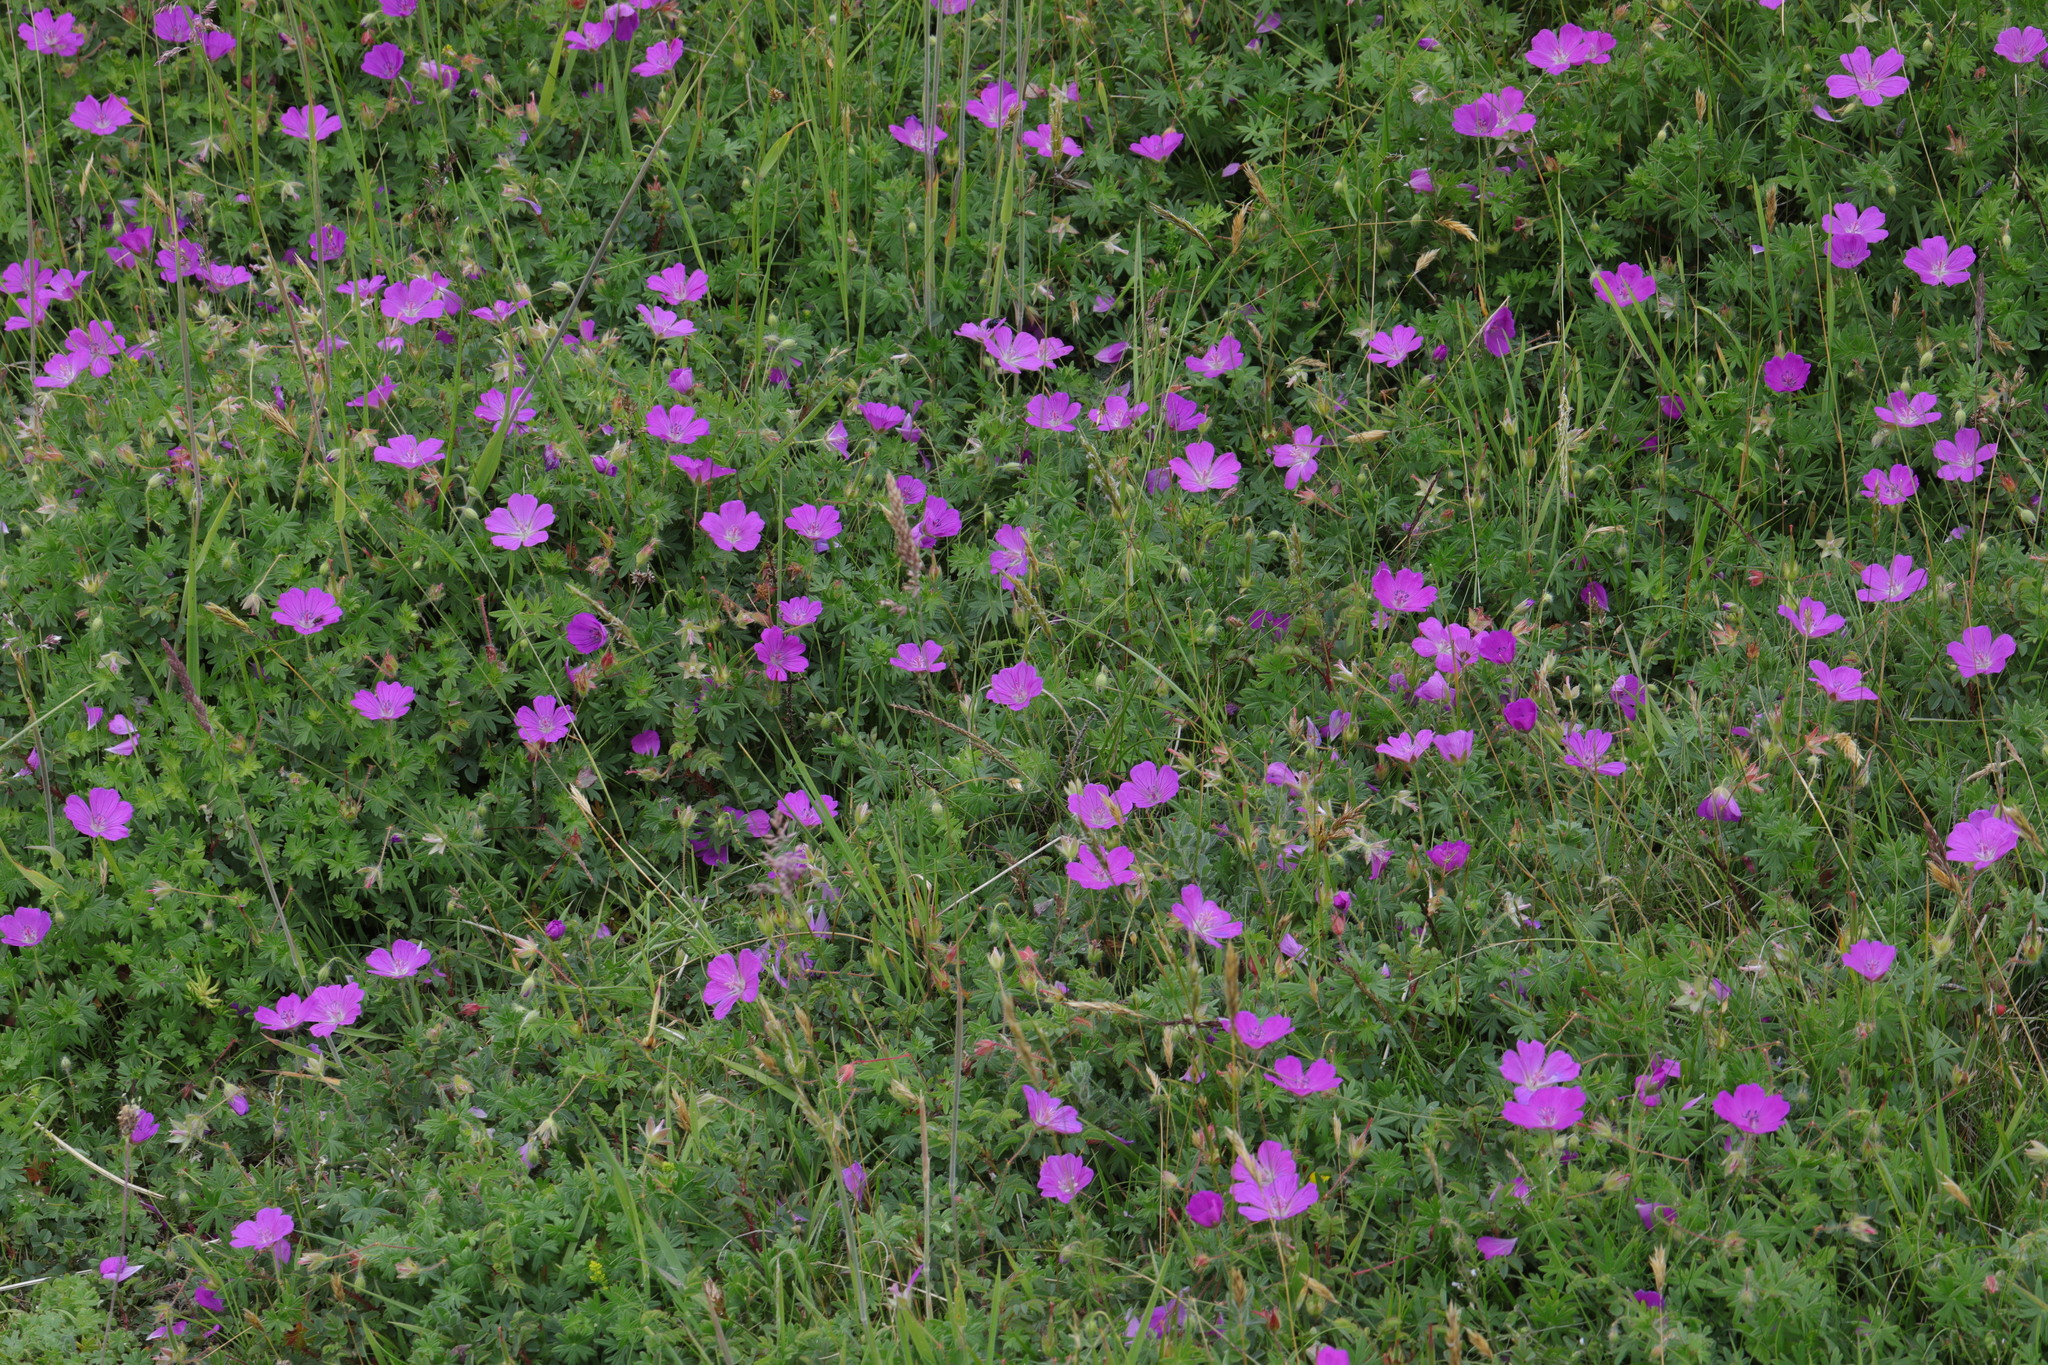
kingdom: Plantae
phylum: Tracheophyta
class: Magnoliopsida
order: Geraniales
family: Geraniaceae
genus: Geranium
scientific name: Geranium sanguineum
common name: Bloody crane's-bill
